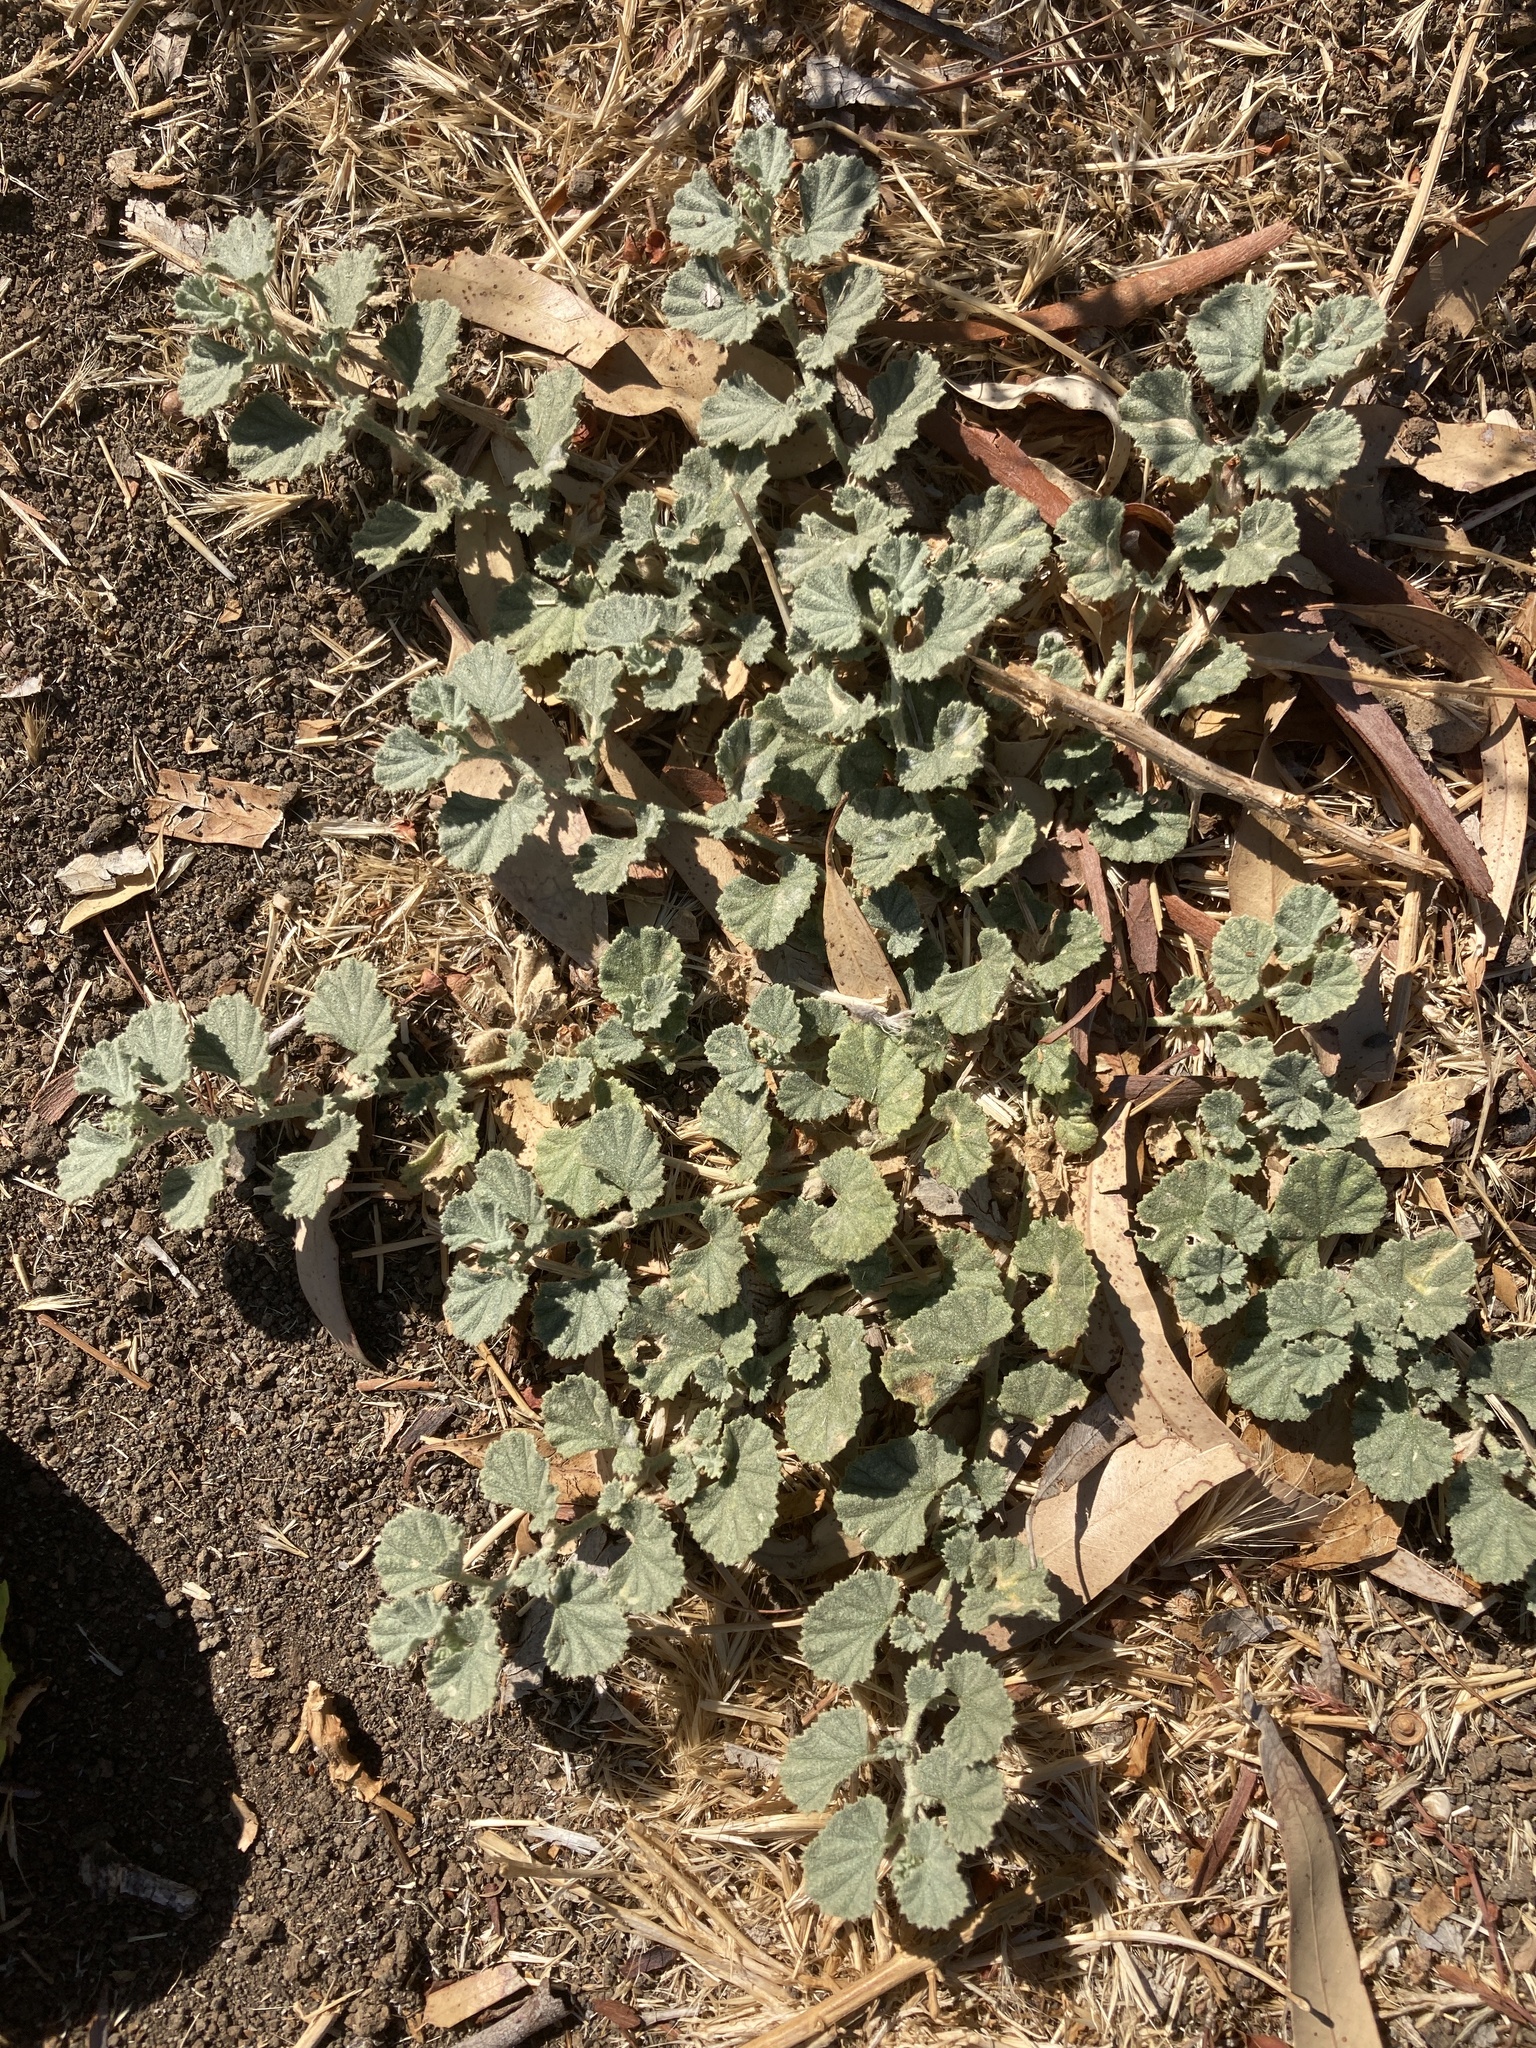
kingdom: Plantae
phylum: Tracheophyta
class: Magnoliopsida
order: Malvales
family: Malvaceae
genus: Malvella
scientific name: Malvella leprosa
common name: Alkali-mallow
